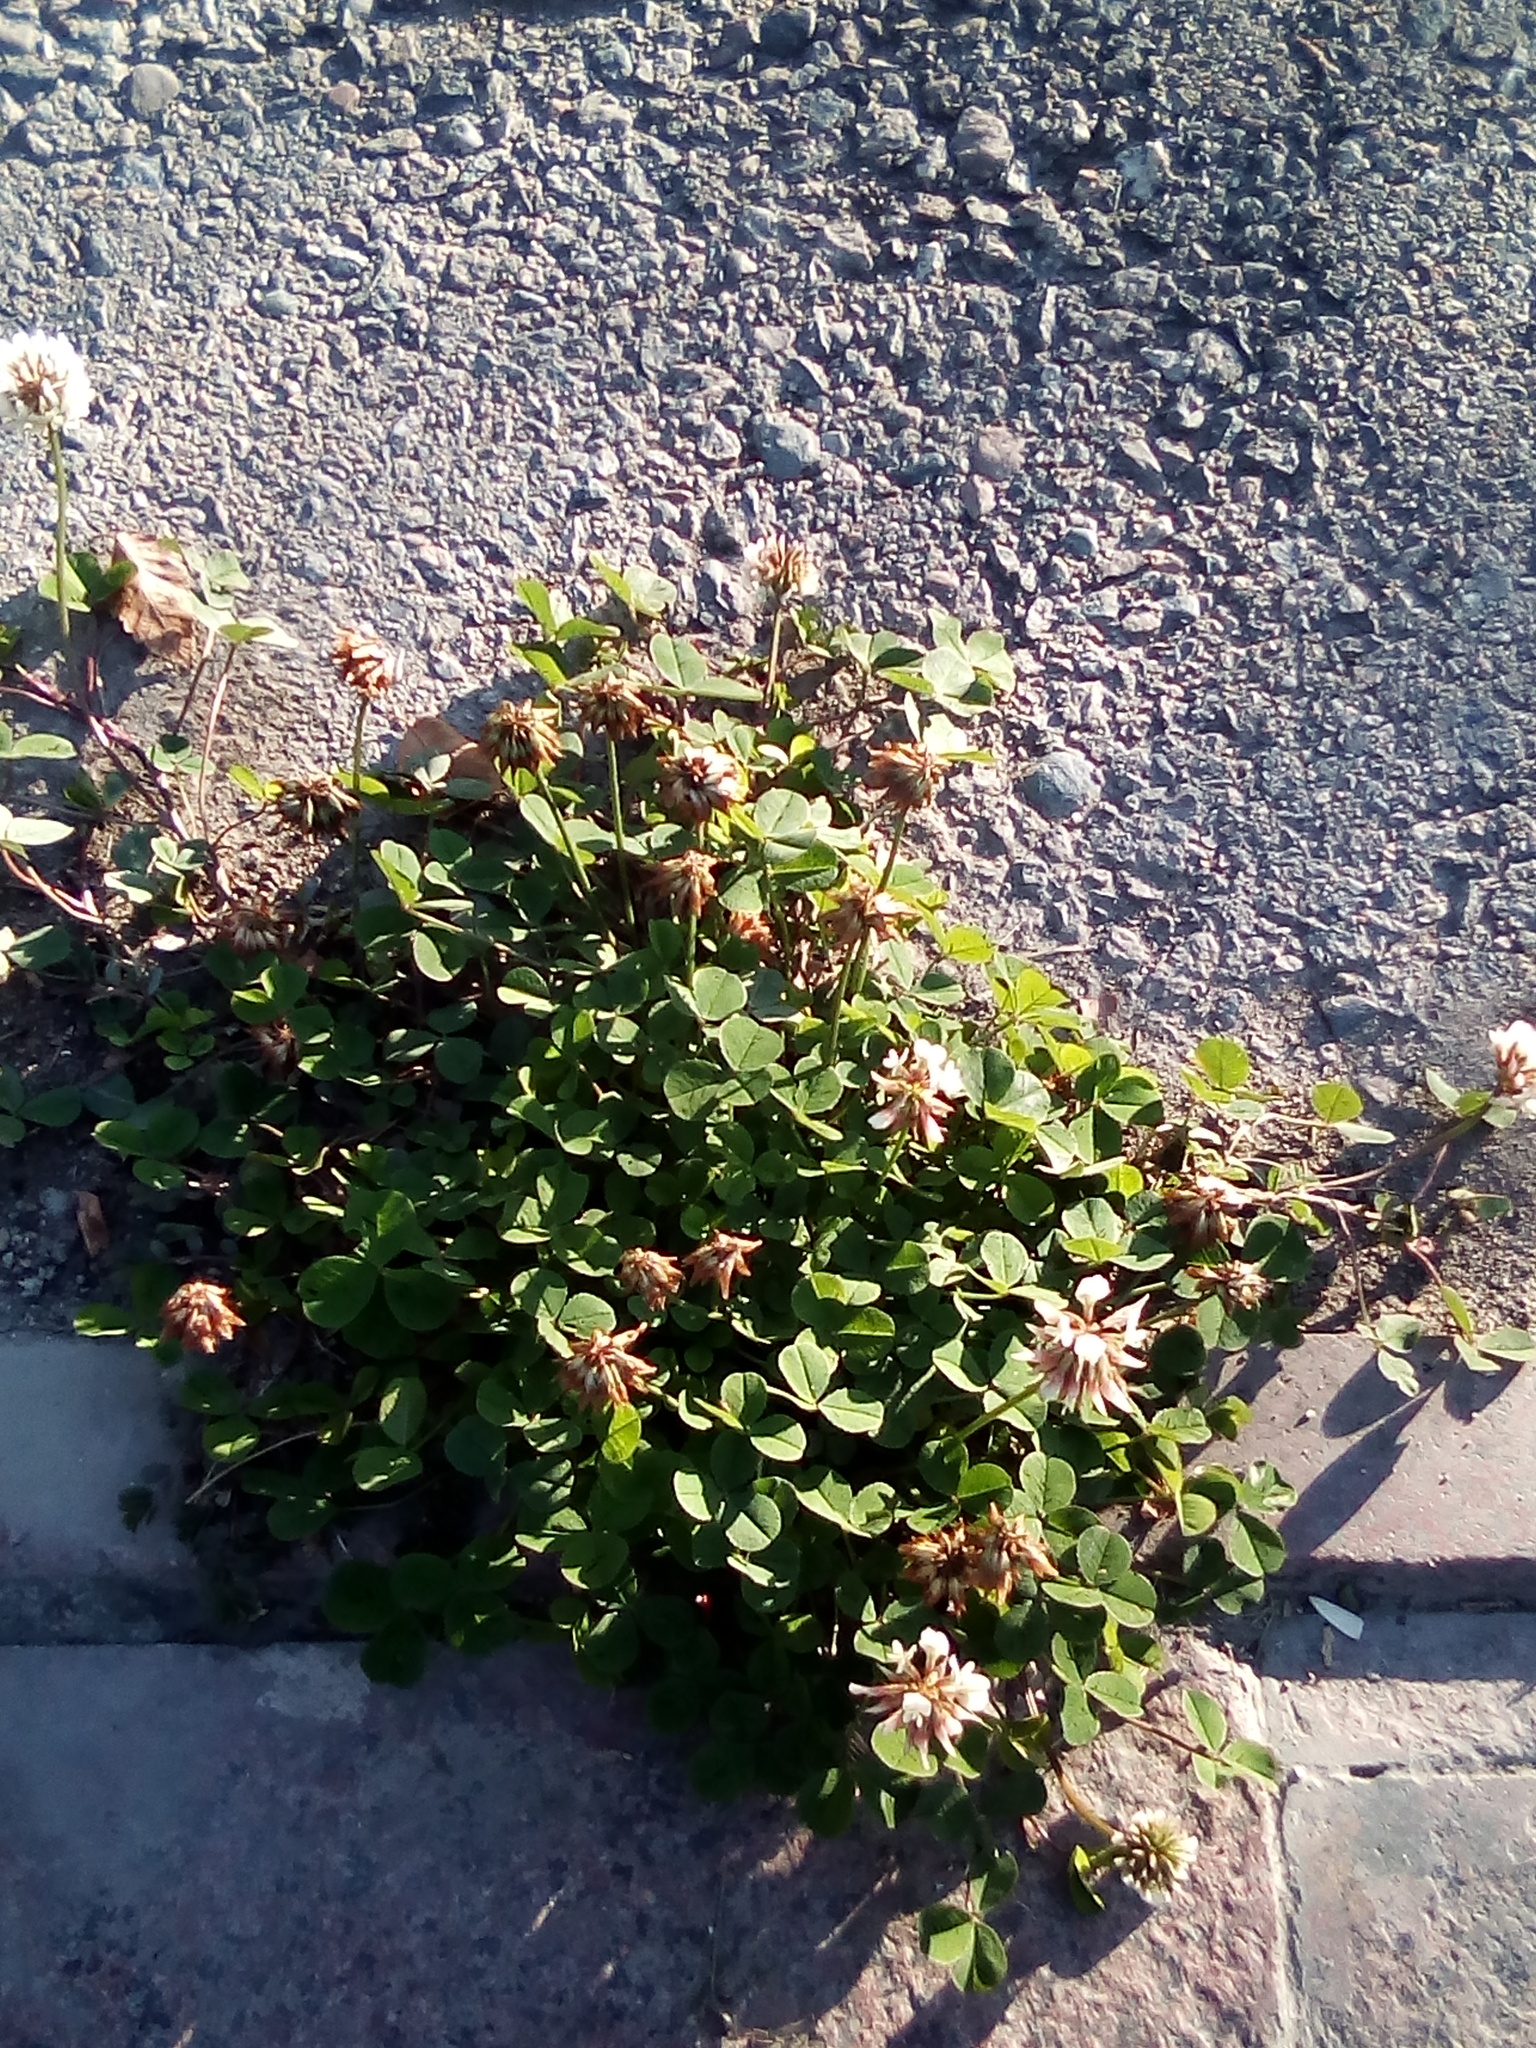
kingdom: Plantae
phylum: Tracheophyta
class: Magnoliopsida
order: Fabales
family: Fabaceae
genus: Trifolium
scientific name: Trifolium repens
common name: White clover
